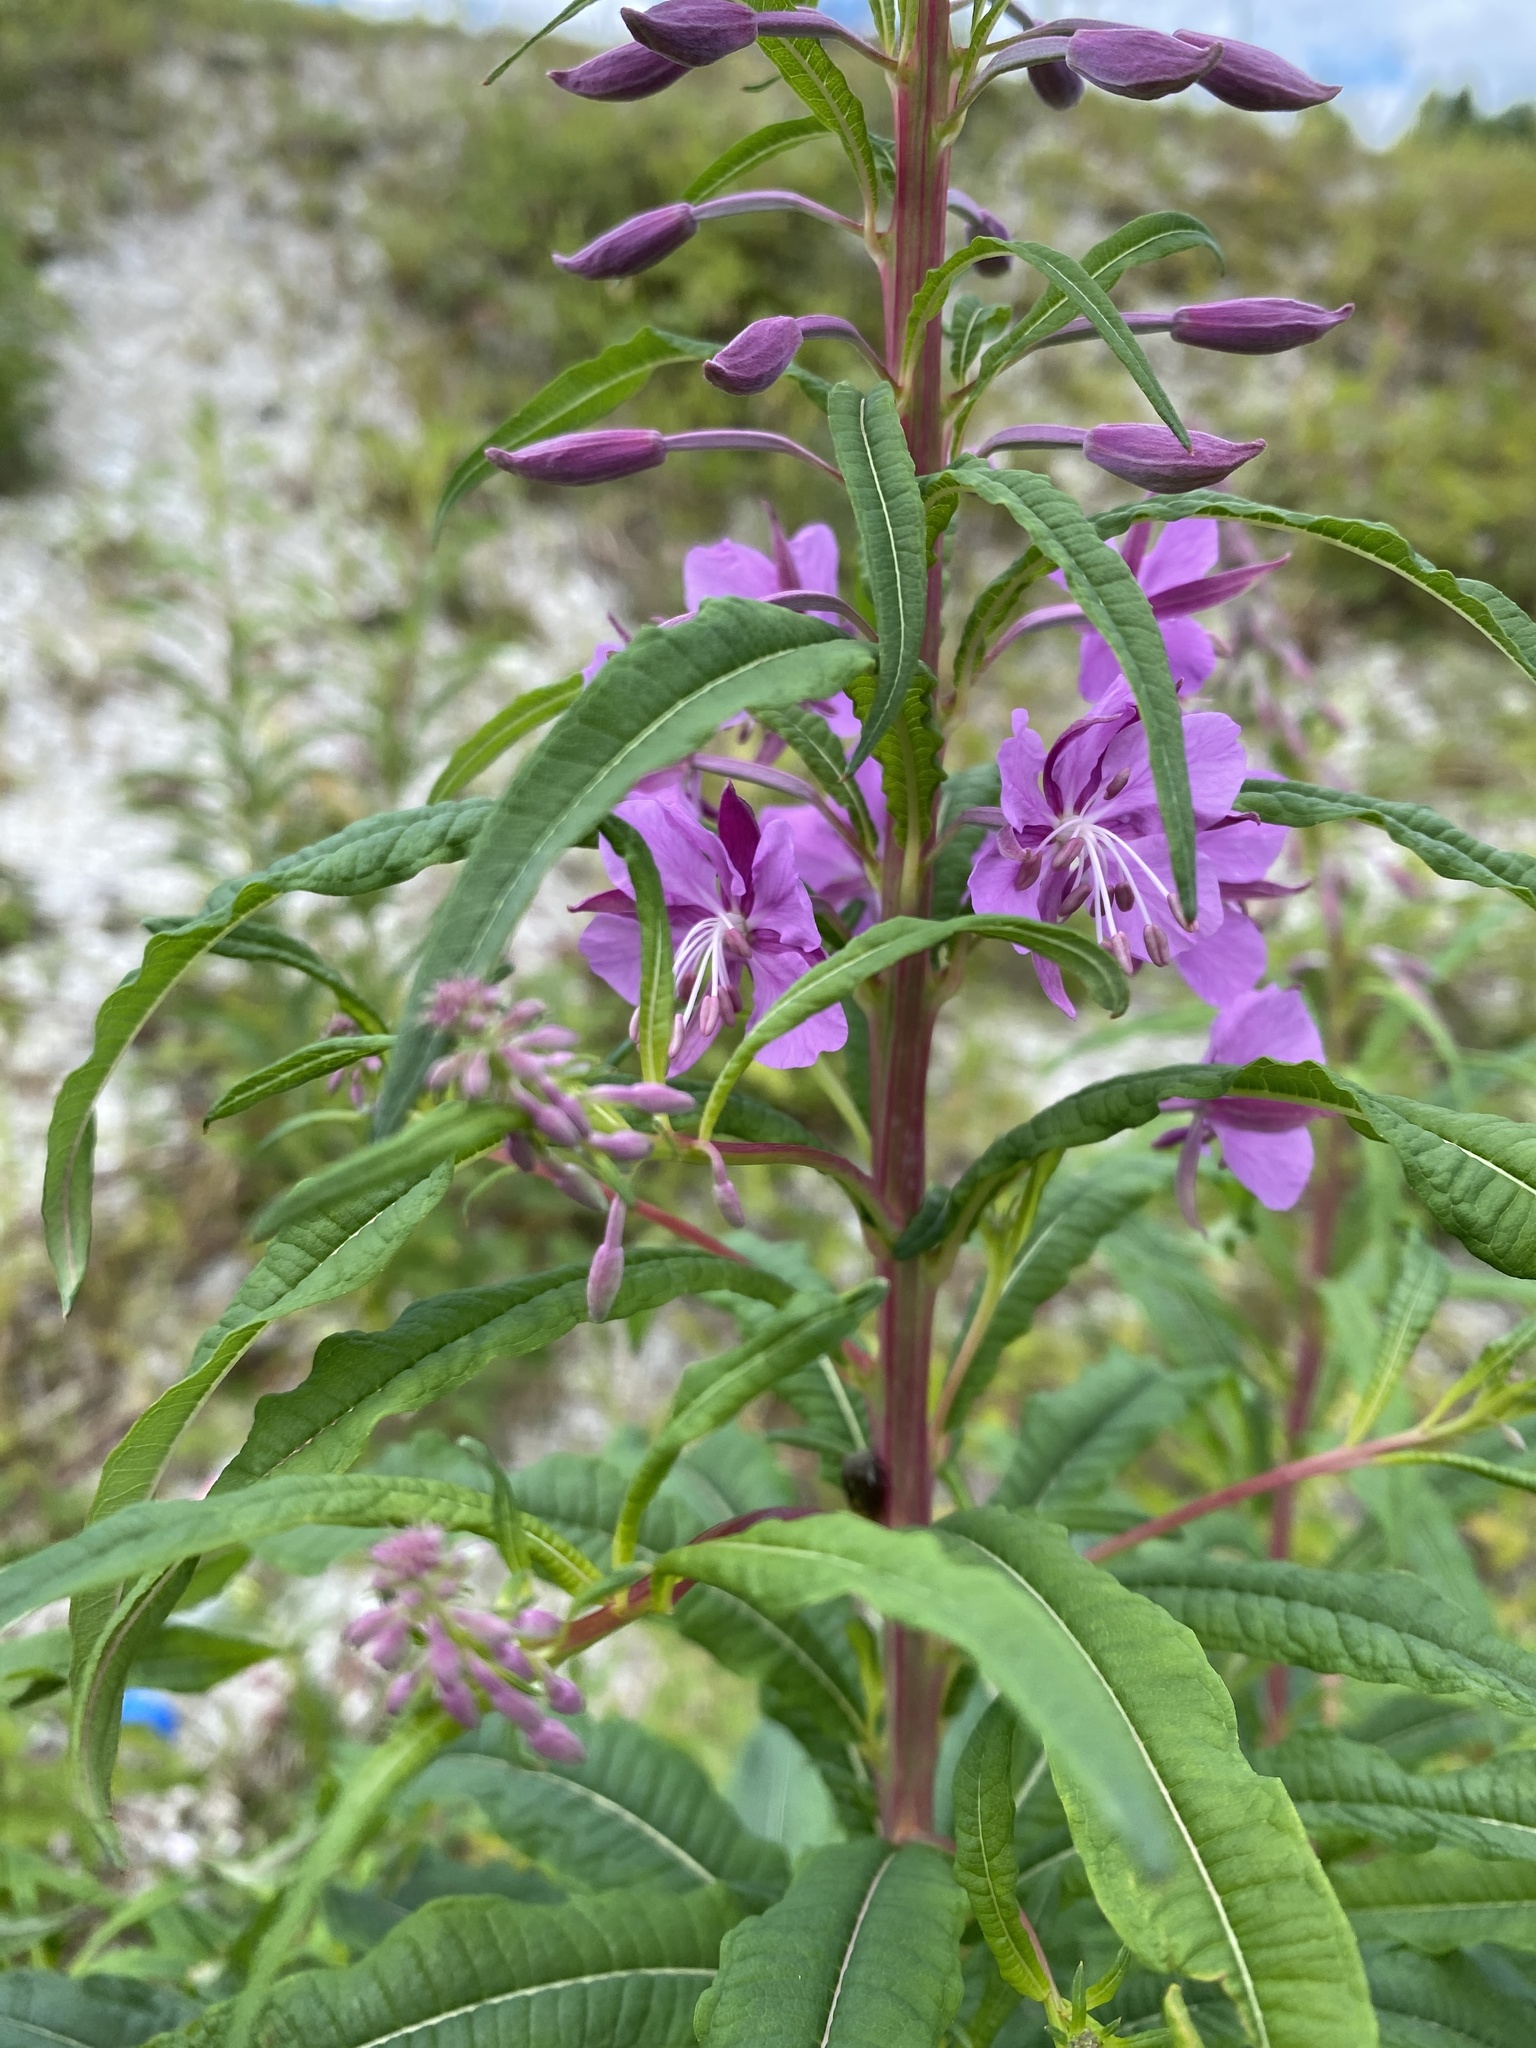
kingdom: Plantae
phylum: Tracheophyta
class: Magnoliopsida
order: Myrtales
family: Onagraceae
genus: Chamaenerion
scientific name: Chamaenerion angustifolium
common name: Fireweed
